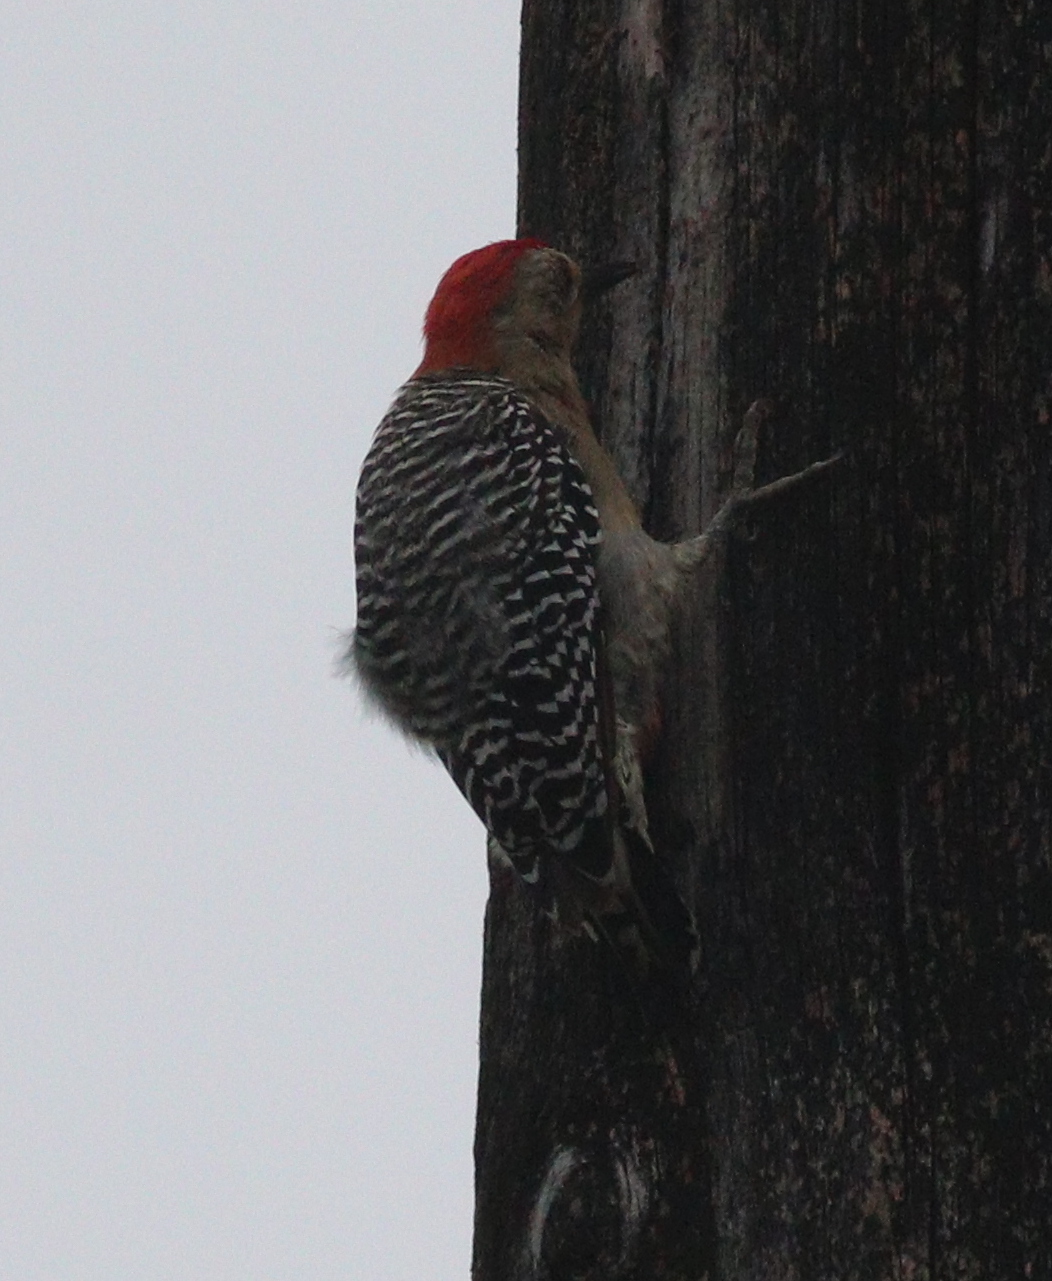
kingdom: Animalia
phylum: Chordata
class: Aves
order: Piciformes
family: Picidae
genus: Melanerpes
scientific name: Melanerpes rubricapillus
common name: Red-crowned woodpecker
